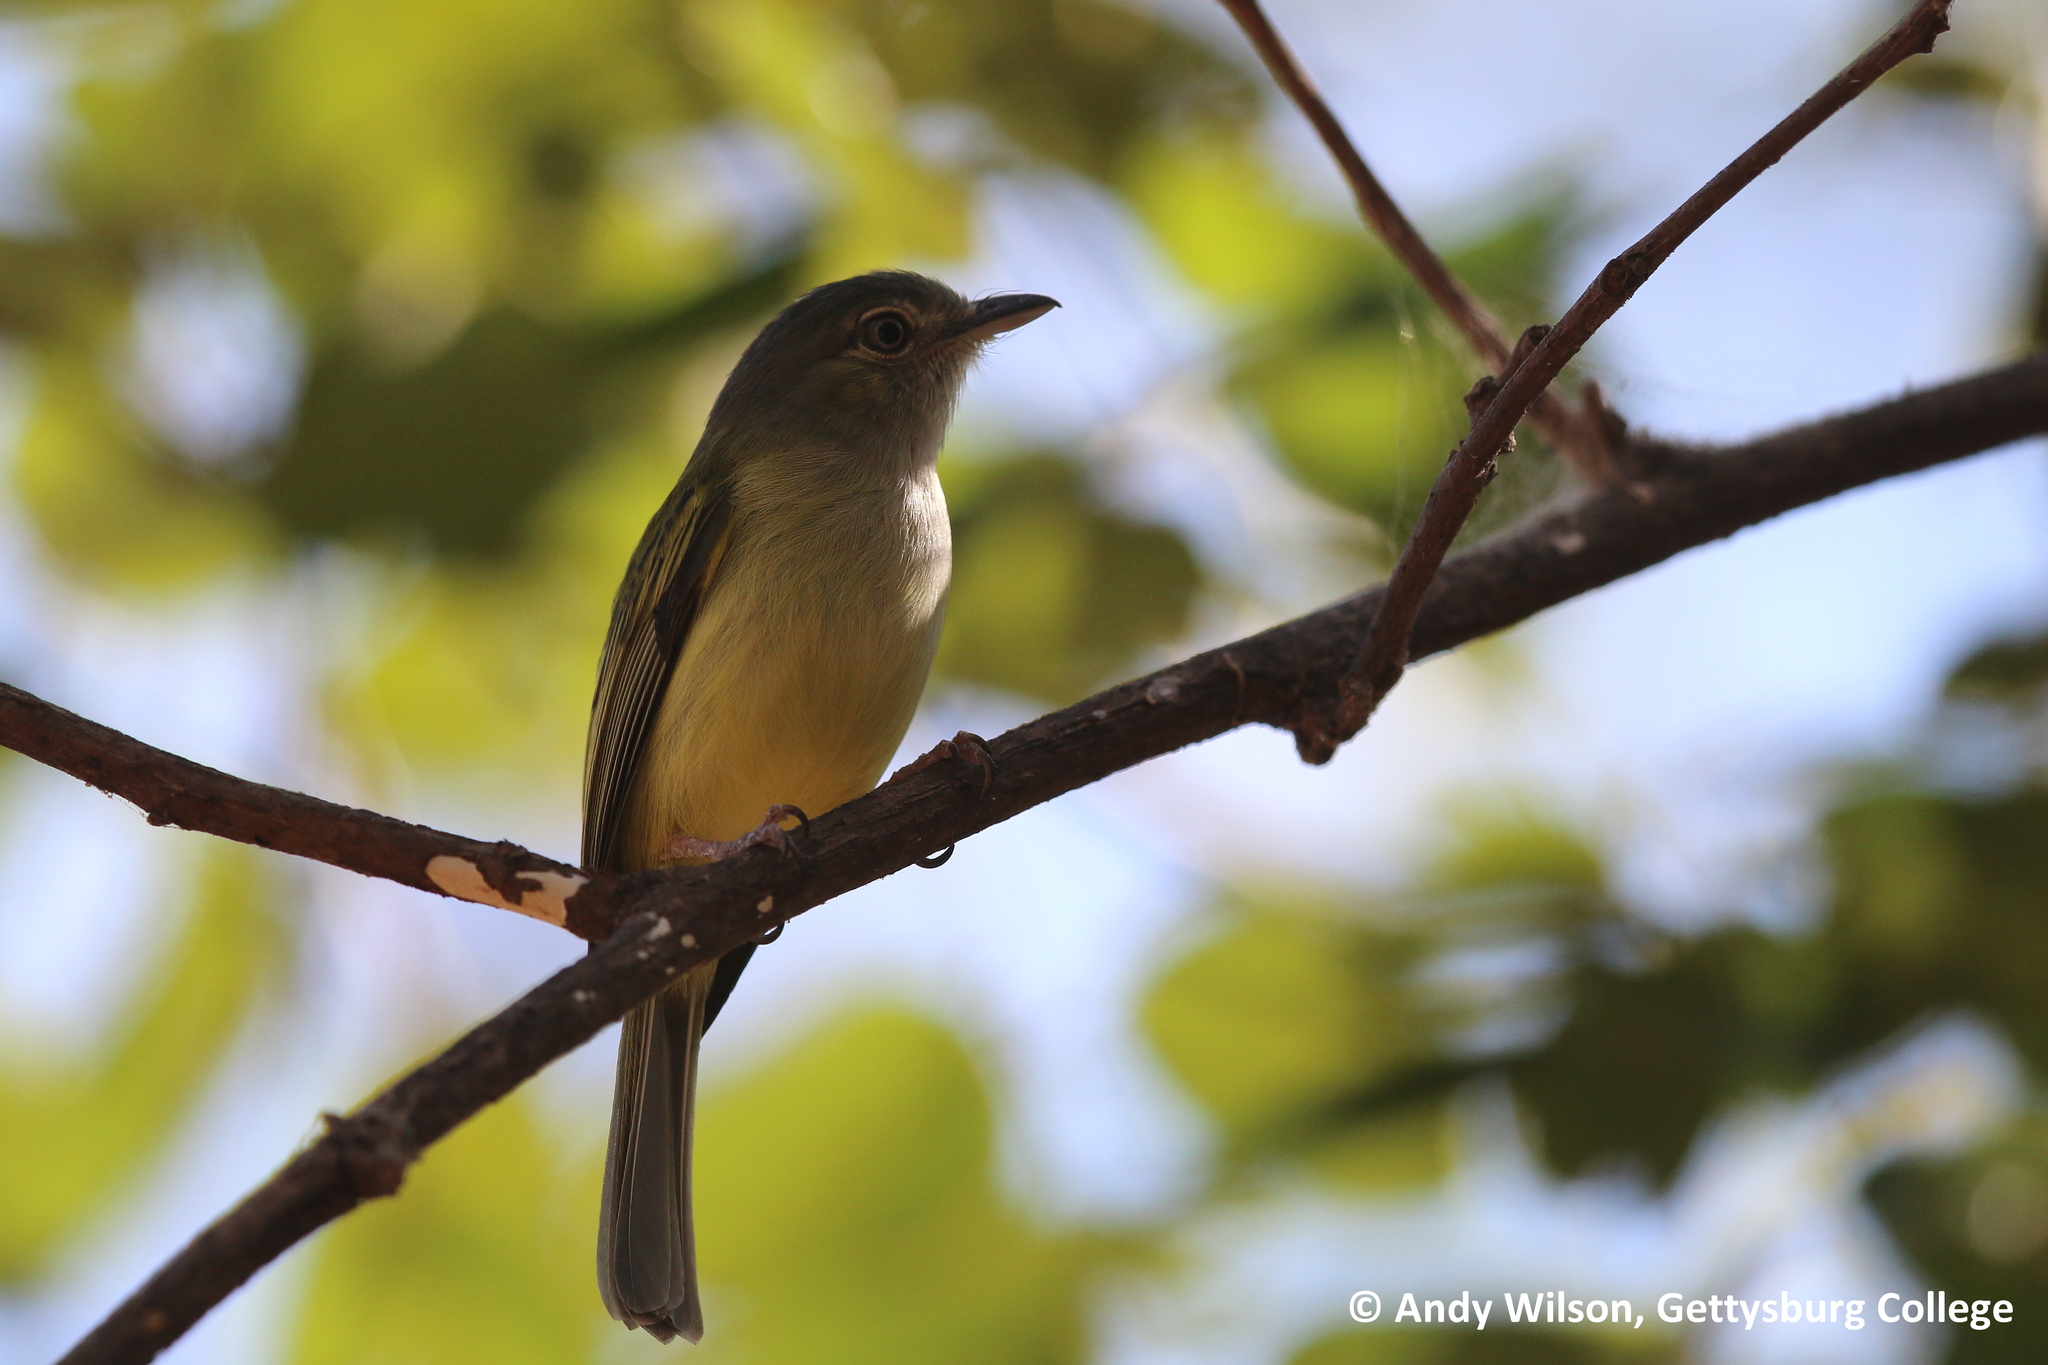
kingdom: Animalia
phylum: Chordata
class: Aves
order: Passeriformes
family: Tyrannidae
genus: Tolmomyias
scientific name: Tolmomyias sulphurescens
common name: Yellow-olive flycatcher
